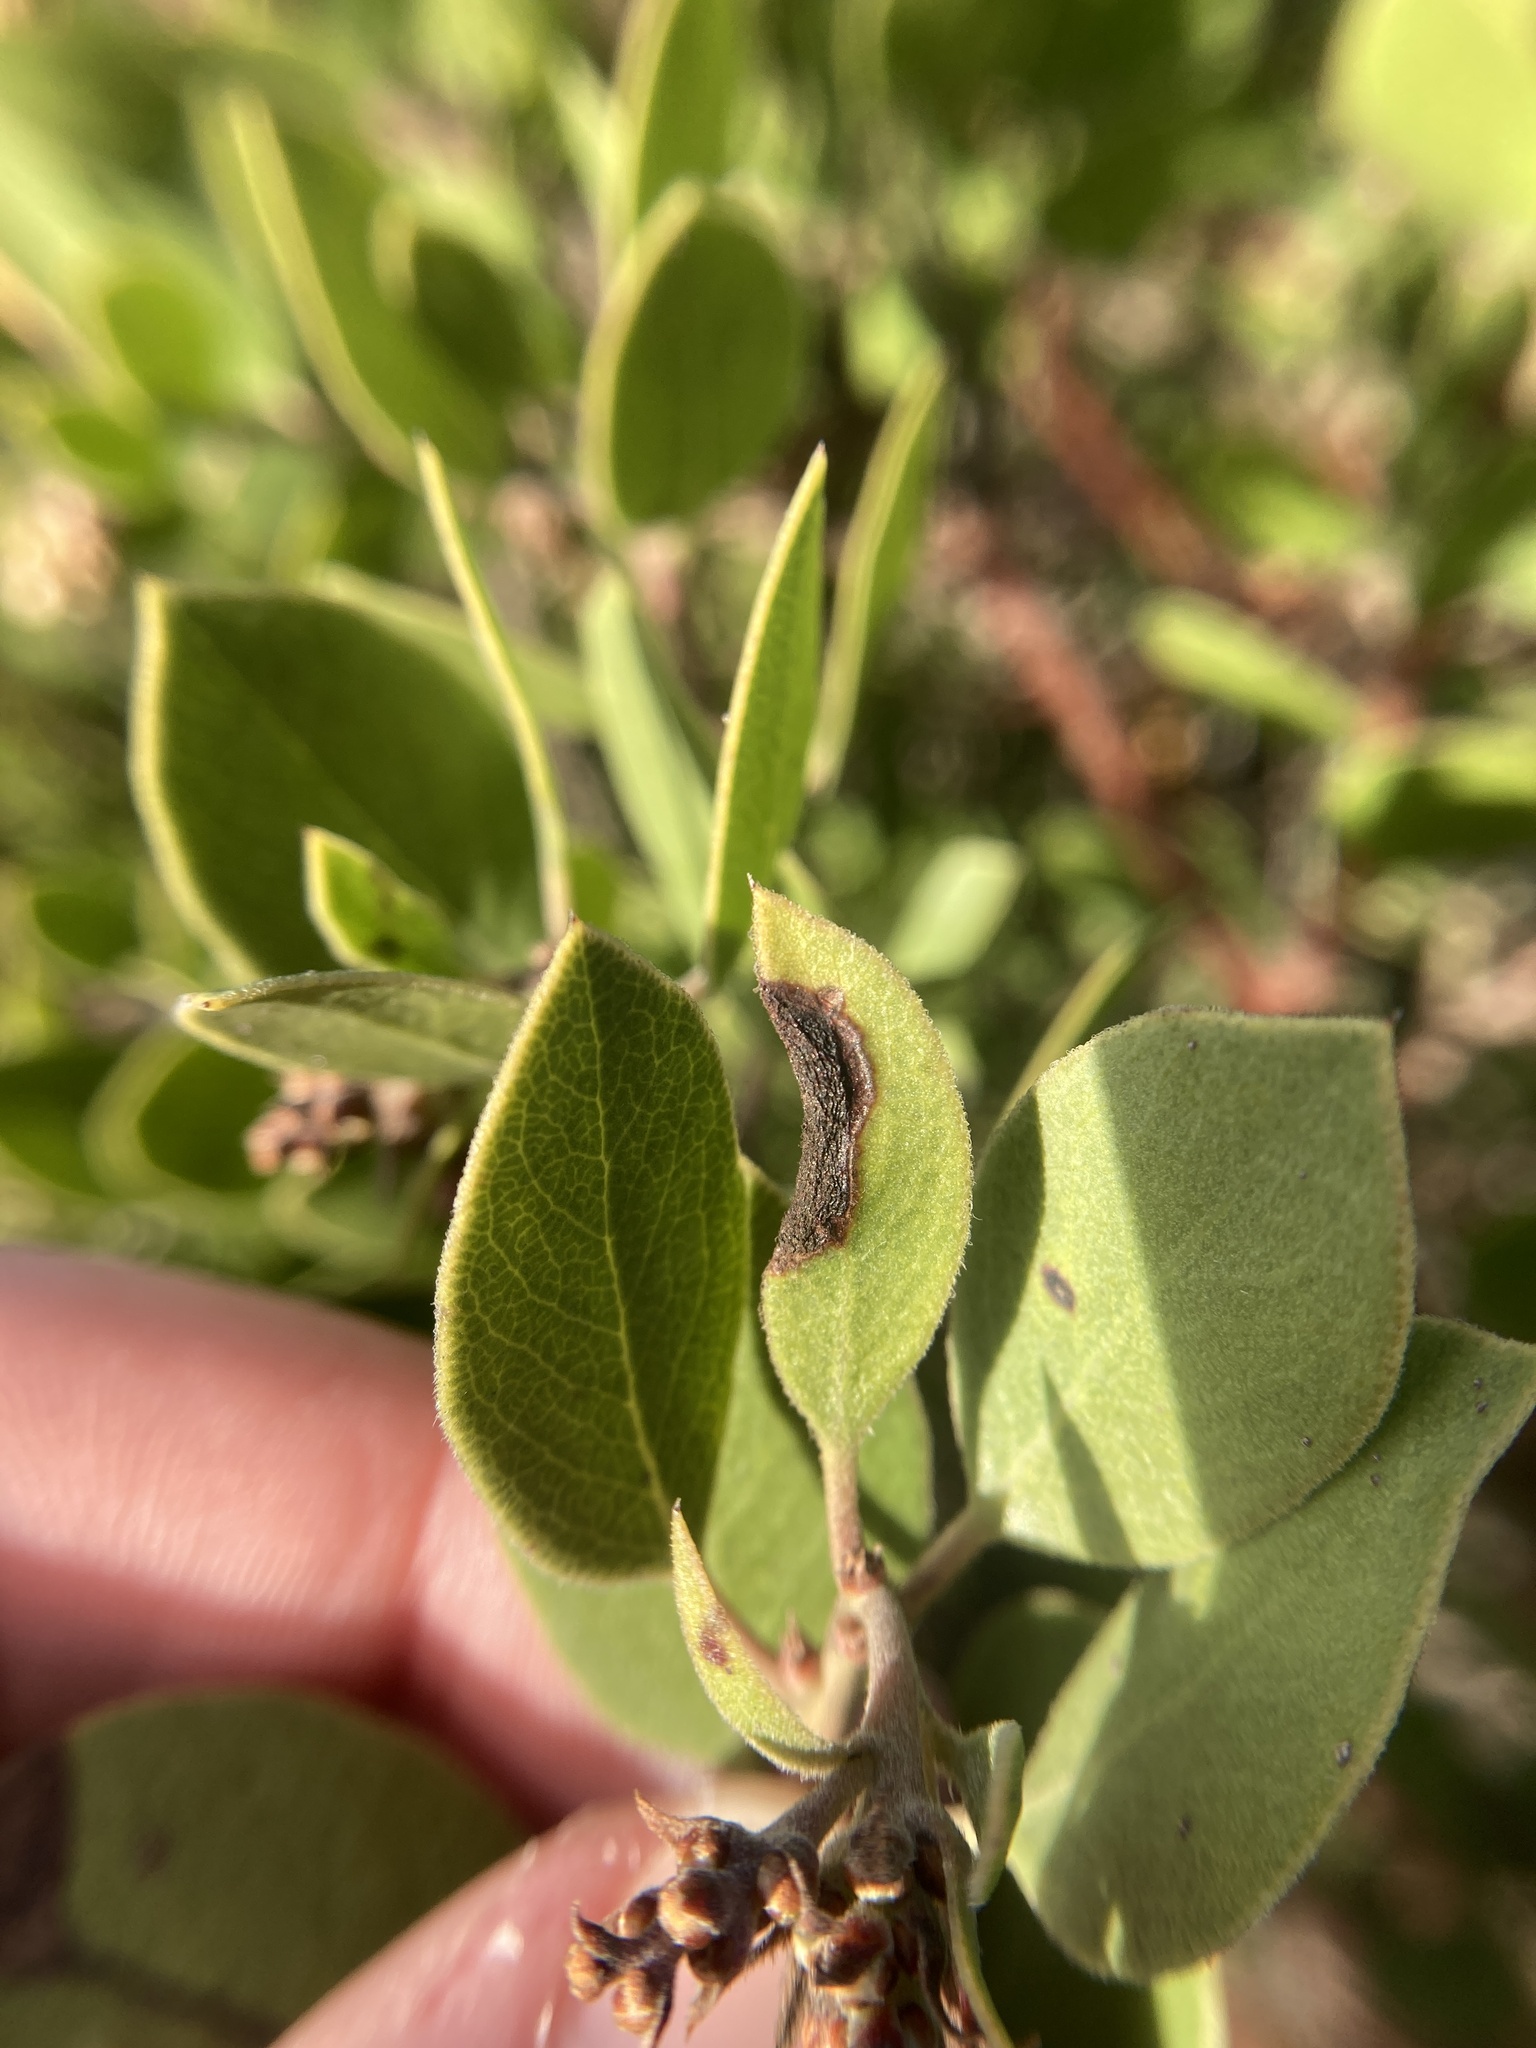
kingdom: Plantae
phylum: Tracheophyta
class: Magnoliopsida
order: Ericales
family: Ericaceae
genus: Arctostaphylos
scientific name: Arctostaphylos rudis
